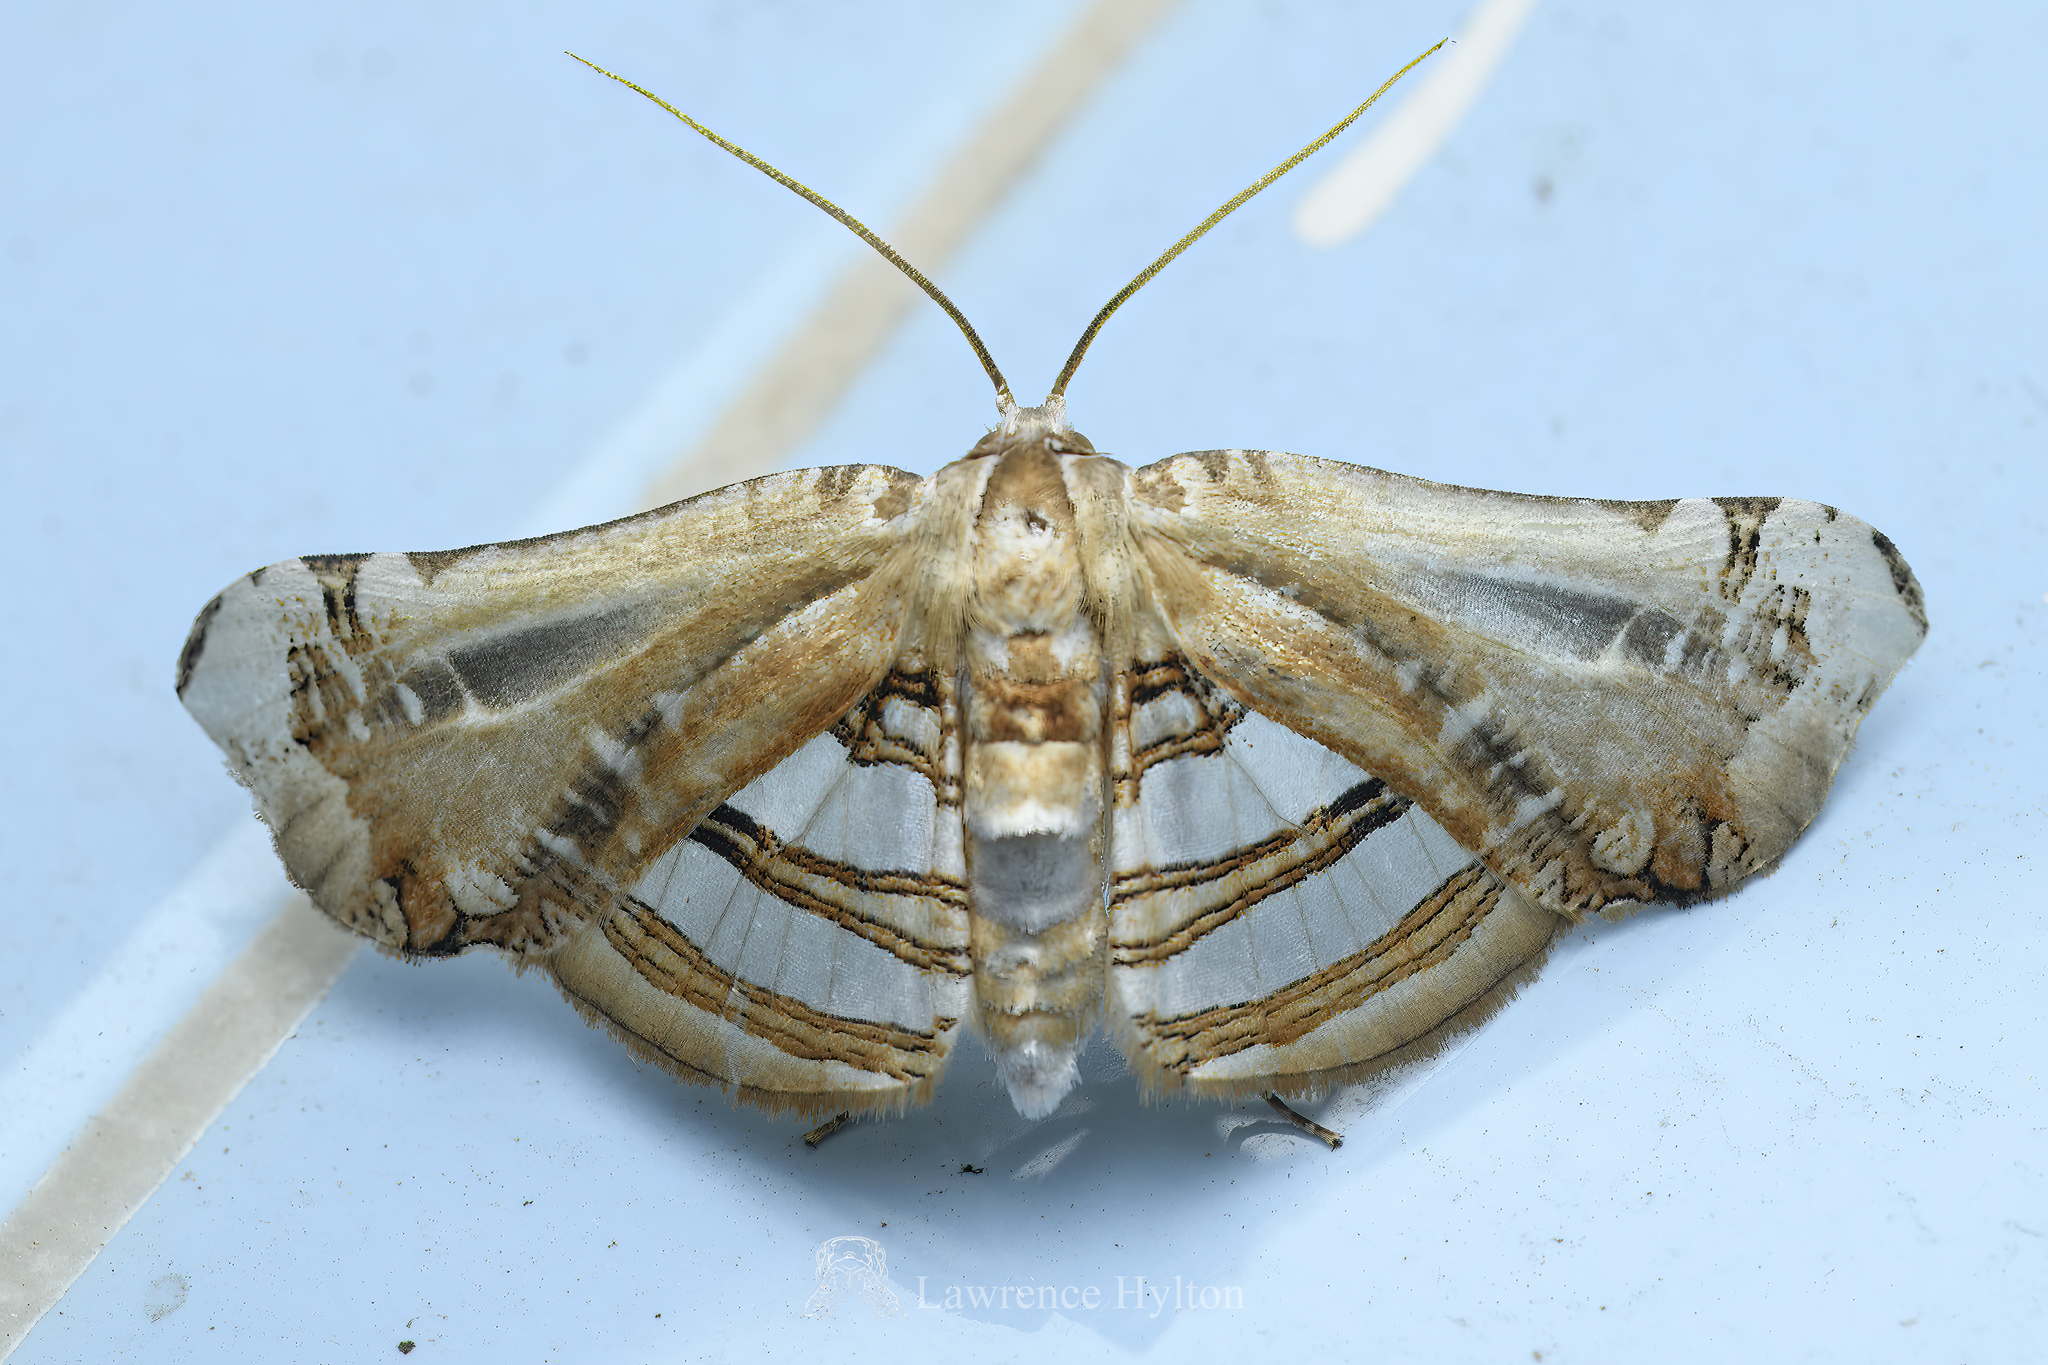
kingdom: Animalia
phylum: Arthropoda
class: Insecta
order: Lepidoptera
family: Thyrididae
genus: Herdonia
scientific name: Herdonia hainanensis
